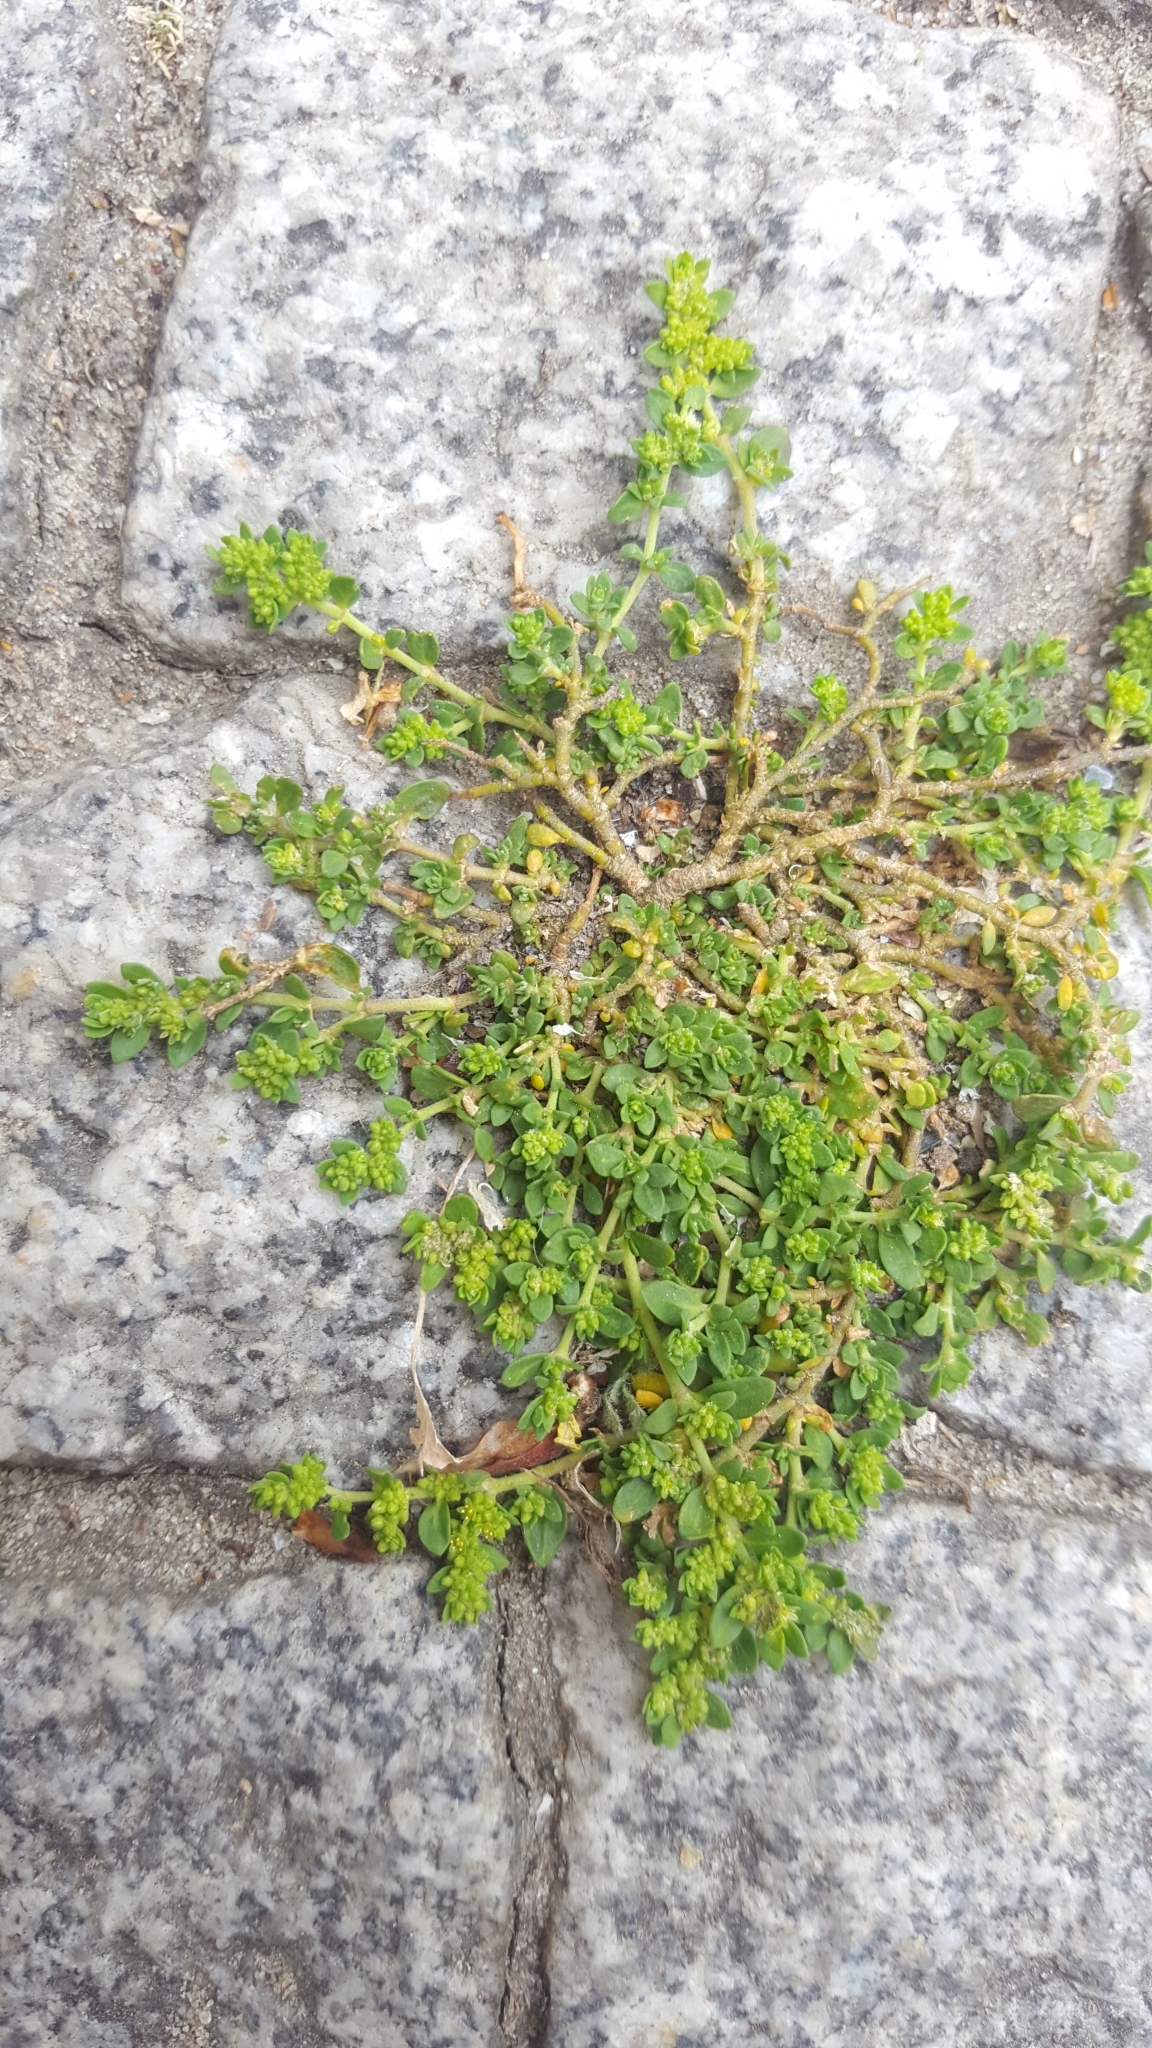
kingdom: Plantae
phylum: Tracheophyta
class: Magnoliopsida
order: Caryophyllales
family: Caryophyllaceae
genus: Herniaria
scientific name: Herniaria glabra
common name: Smooth rupturewort
